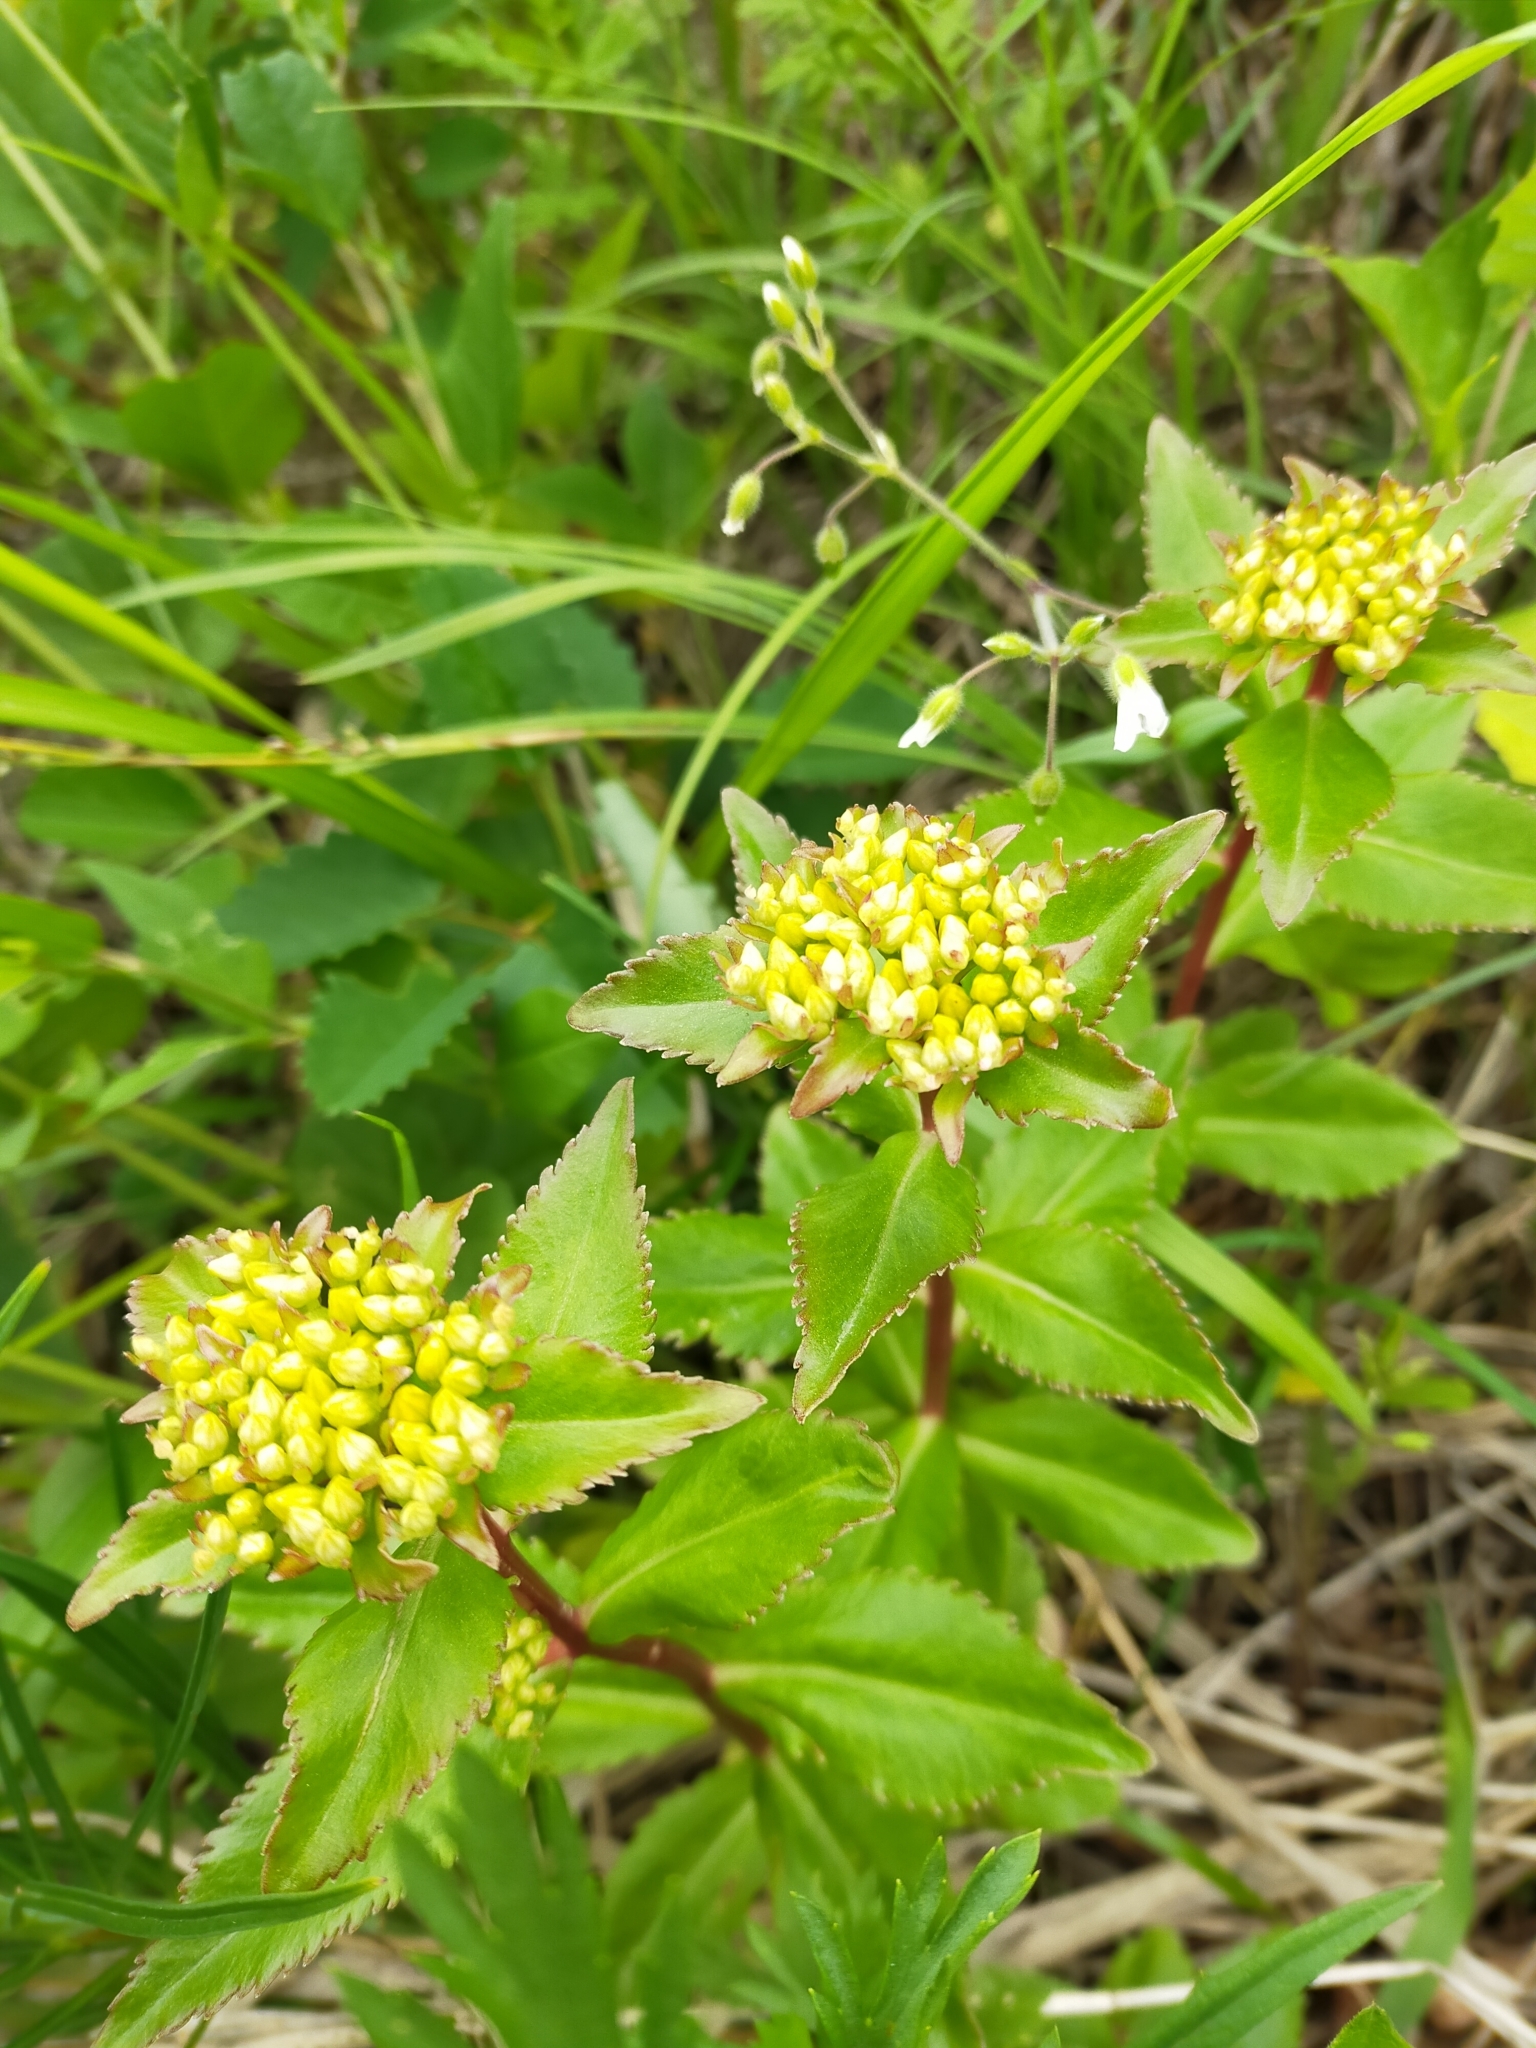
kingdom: Plantae
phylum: Tracheophyta
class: Magnoliopsida
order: Saxifragales
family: Crassulaceae
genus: Phedimus
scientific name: Phedimus litoralis
